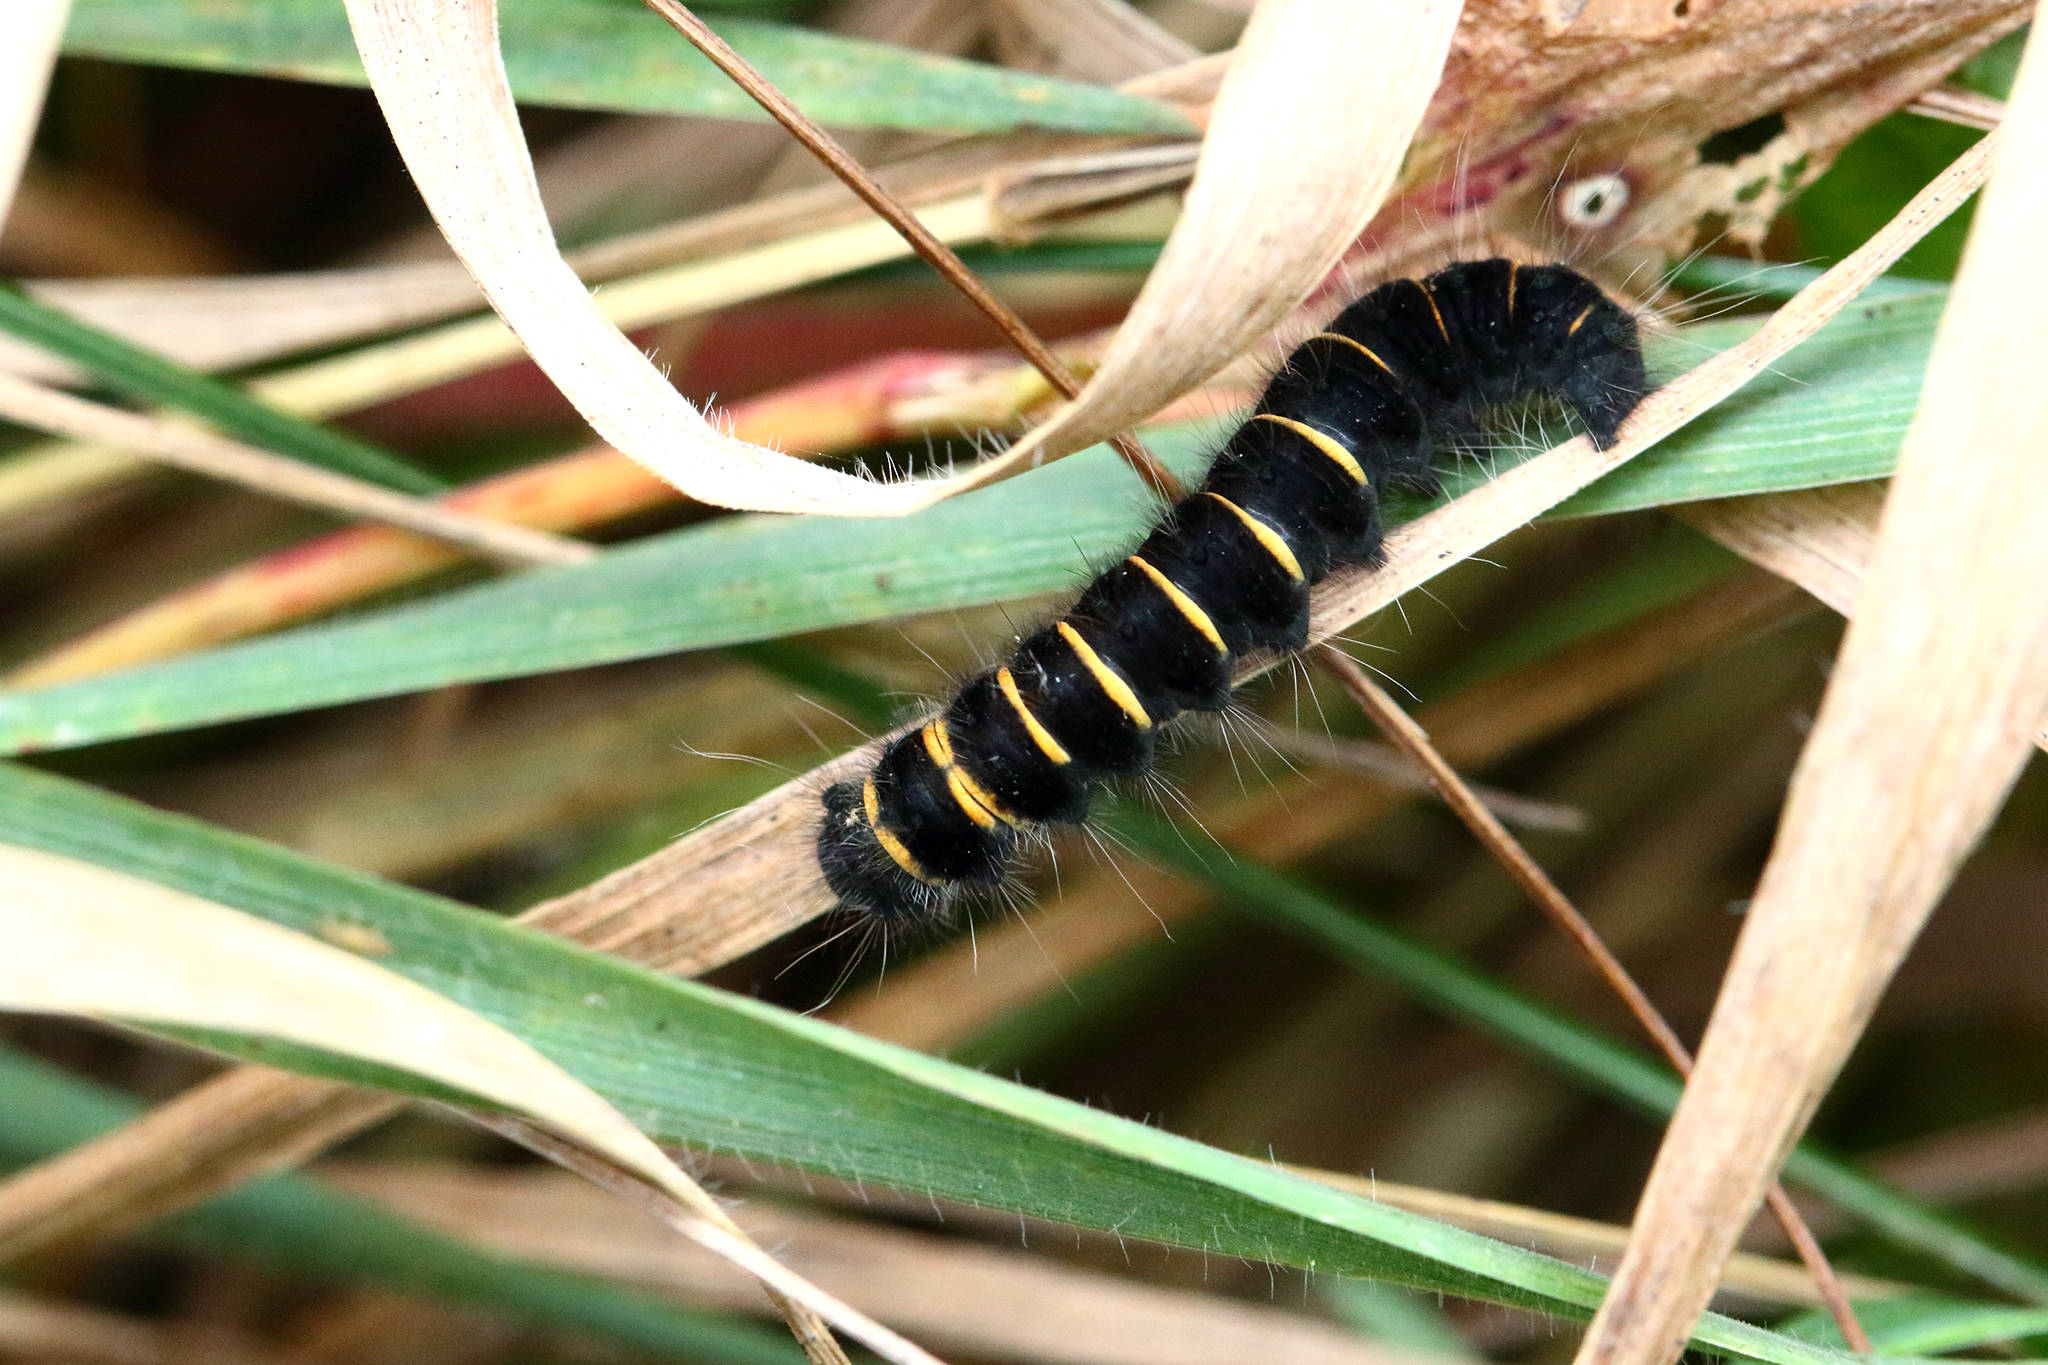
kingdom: Animalia
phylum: Arthropoda
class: Insecta
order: Lepidoptera
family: Lasiocampidae
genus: Macrothylacia
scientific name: Macrothylacia rubi
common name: Fox moth
